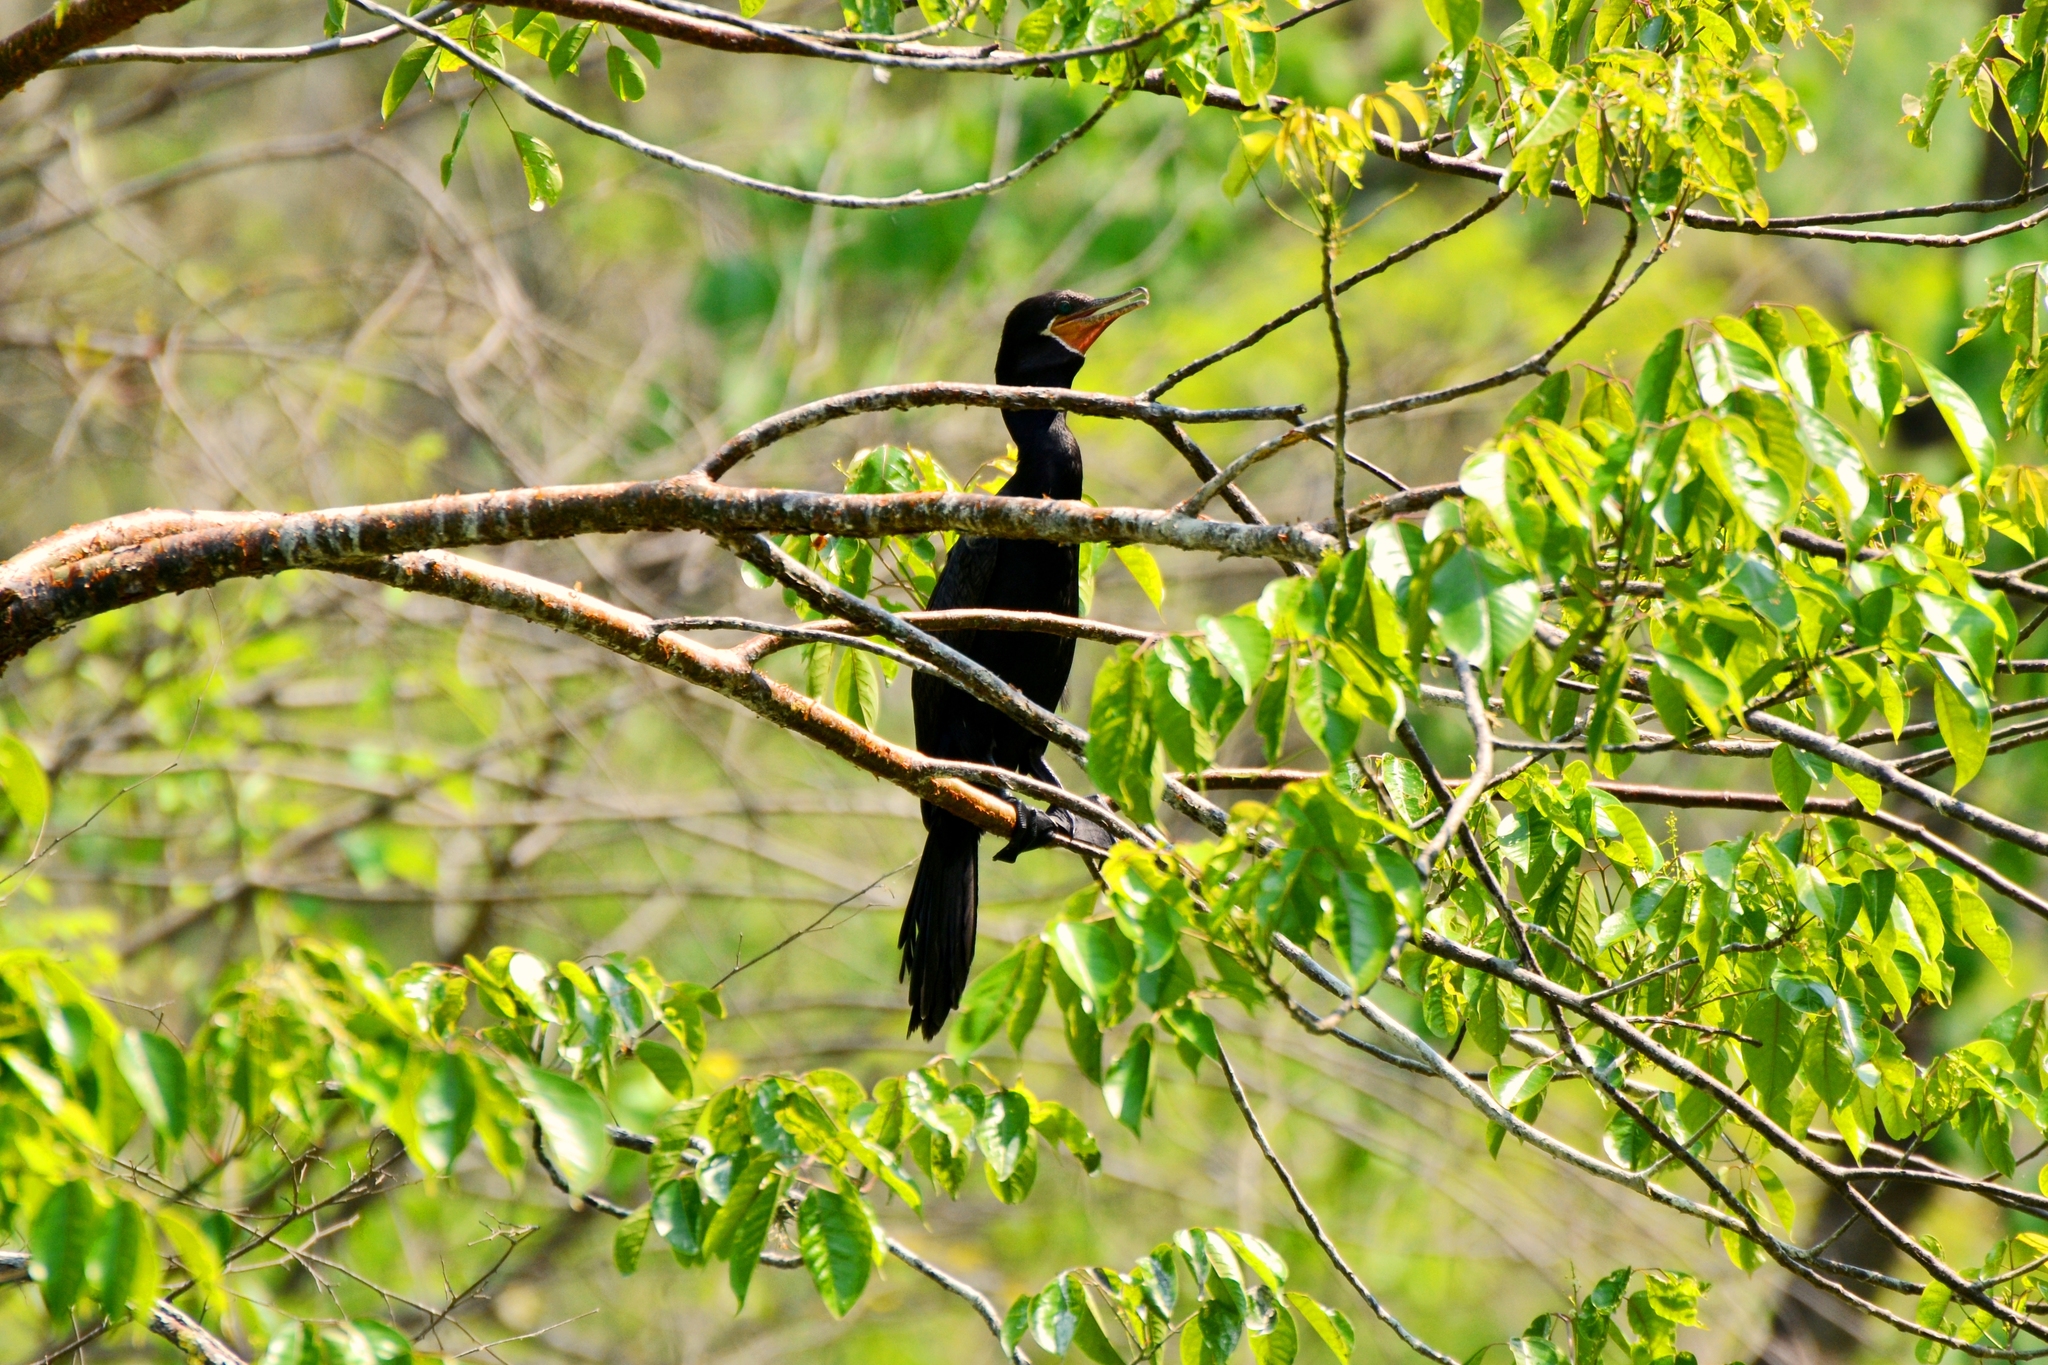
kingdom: Animalia
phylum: Chordata
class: Aves
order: Suliformes
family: Phalacrocoracidae
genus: Phalacrocorax
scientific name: Phalacrocorax brasilianus
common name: Neotropic cormorant
